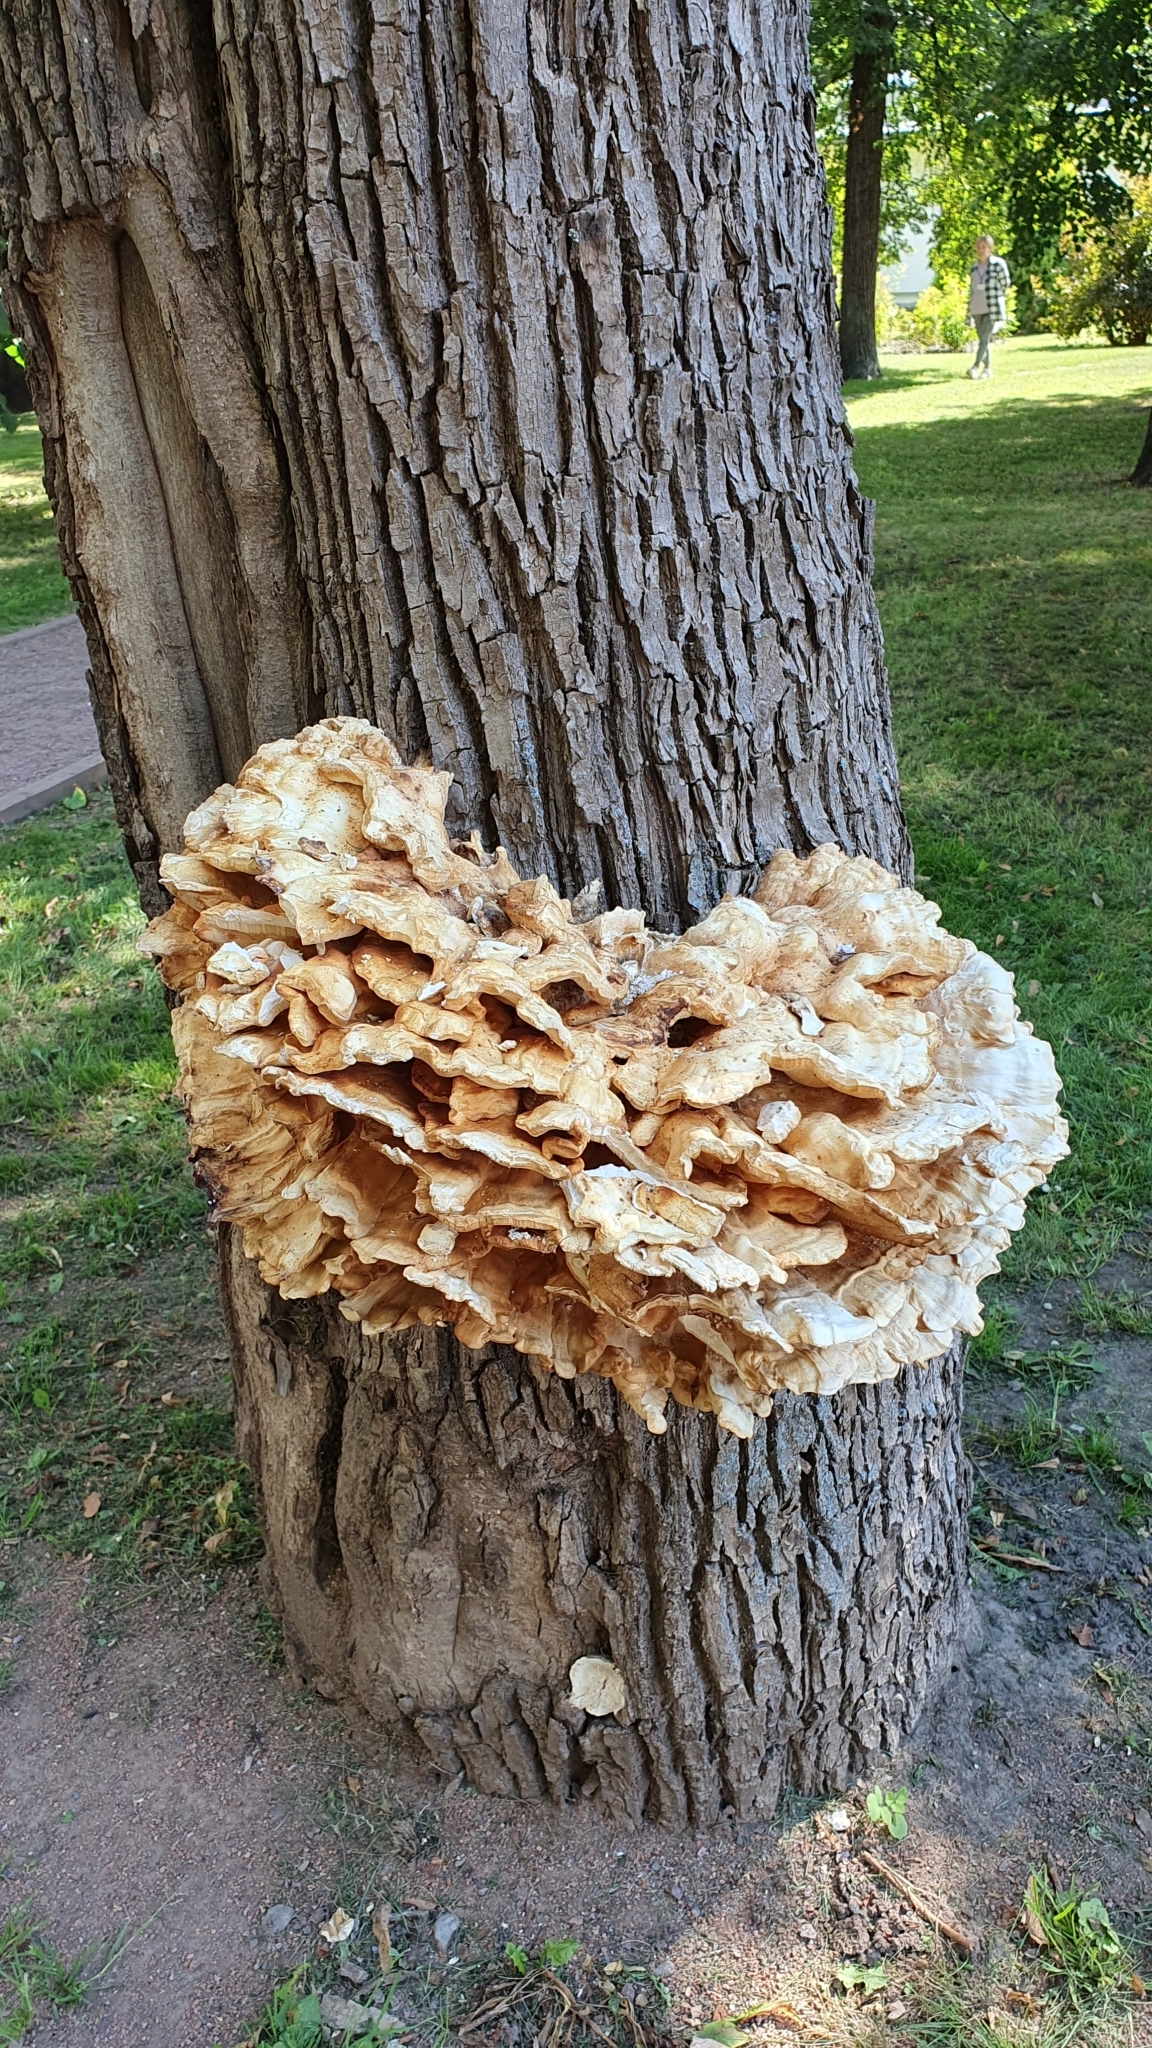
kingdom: Fungi
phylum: Basidiomycota
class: Agaricomycetes
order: Polyporales
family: Laetiporaceae
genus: Laetiporus
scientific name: Laetiporus sulphureus
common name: Chicken of the woods
